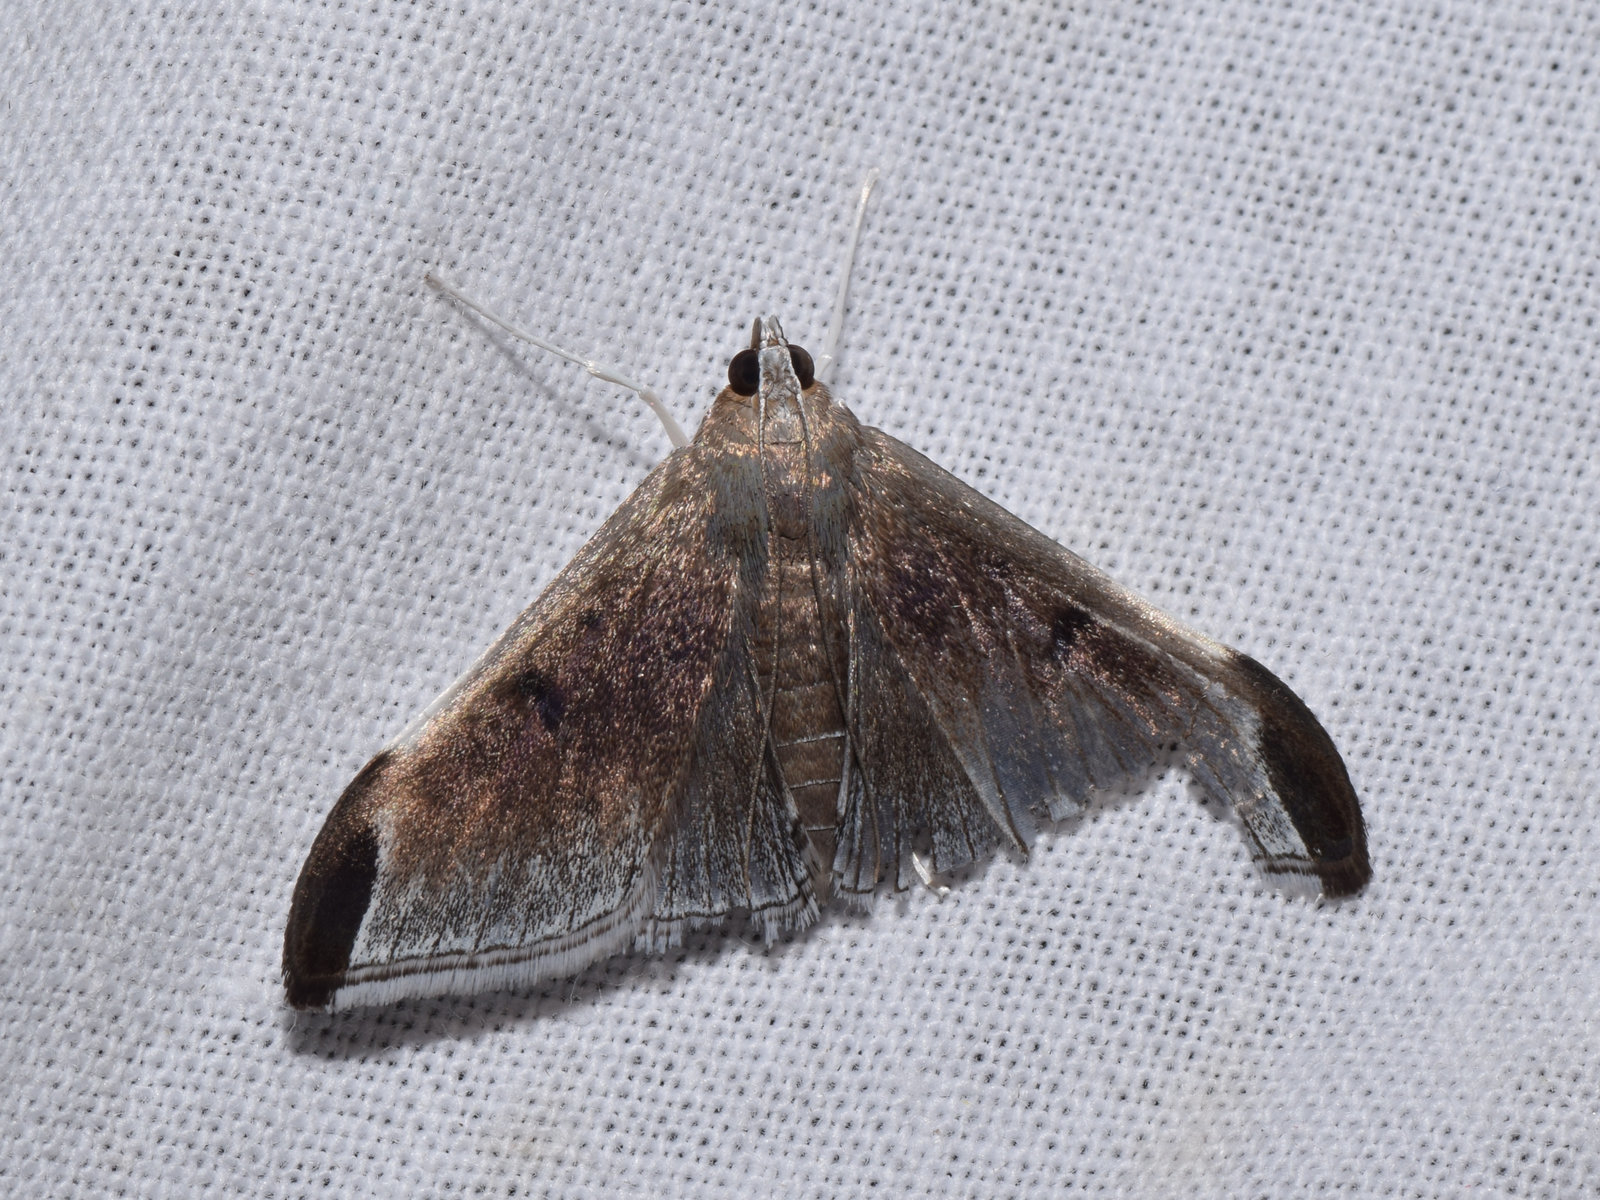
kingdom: Animalia
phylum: Arthropoda
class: Insecta
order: Lepidoptera
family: Crambidae
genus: Heterocnephes
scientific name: Heterocnephes Charitoprepes lubricosa
